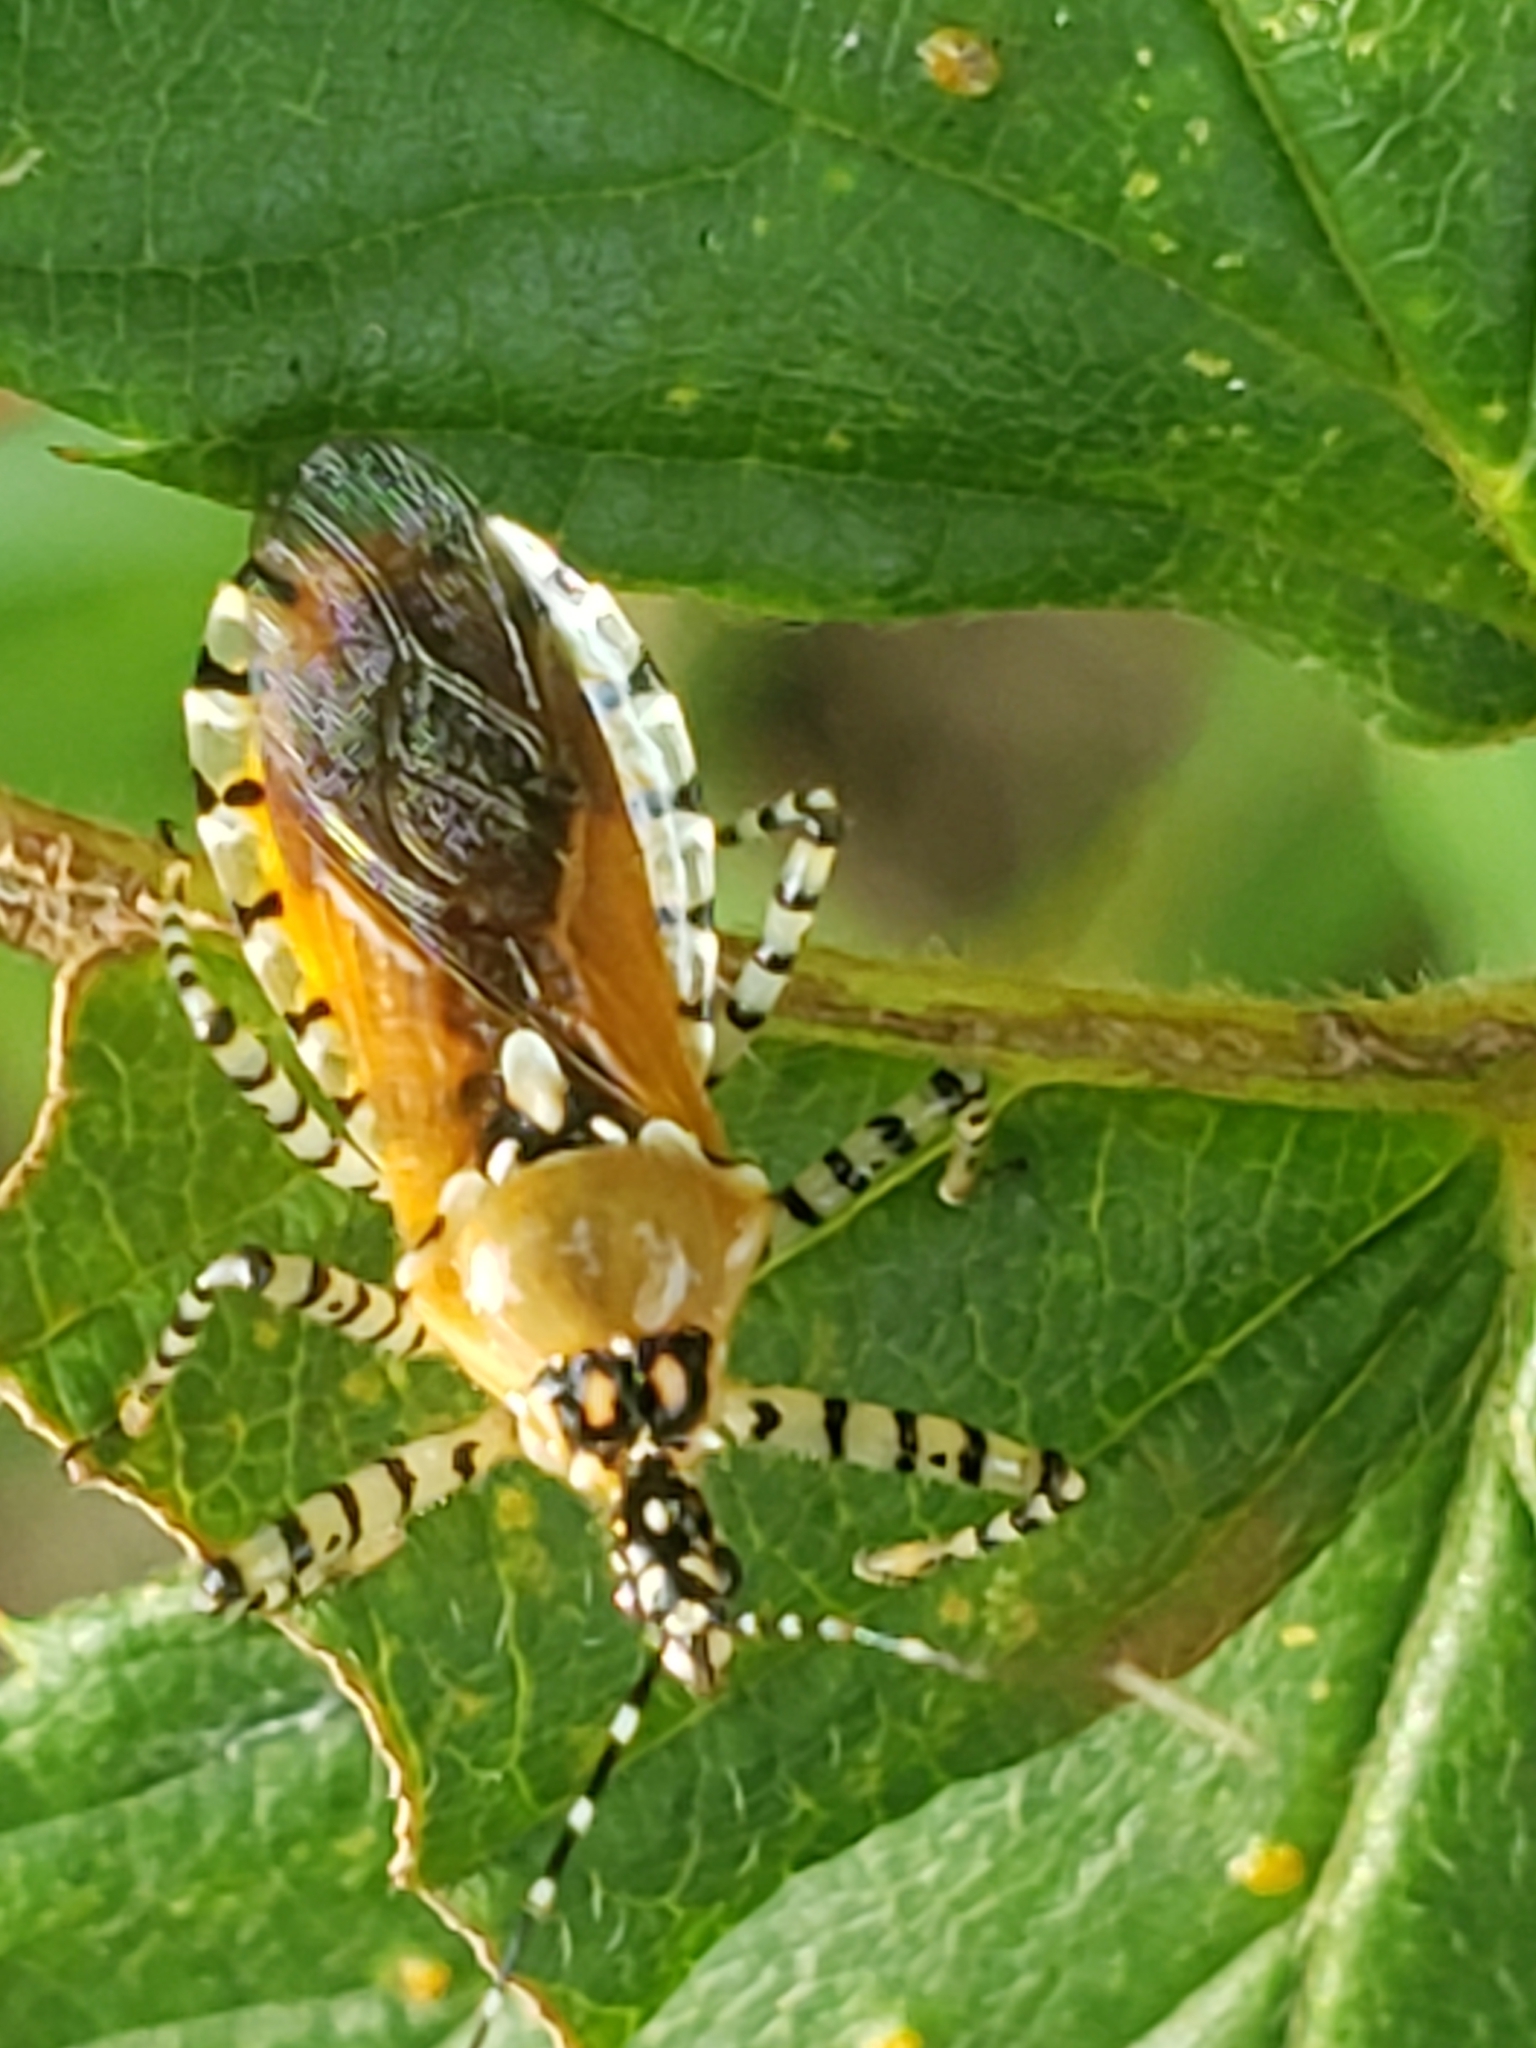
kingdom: Animalia
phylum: Arthropoda
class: Insecta
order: Hemiptera
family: Reduviidae
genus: Pselliopus
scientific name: Pselliopus cinctus
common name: Ringed assassin bug
